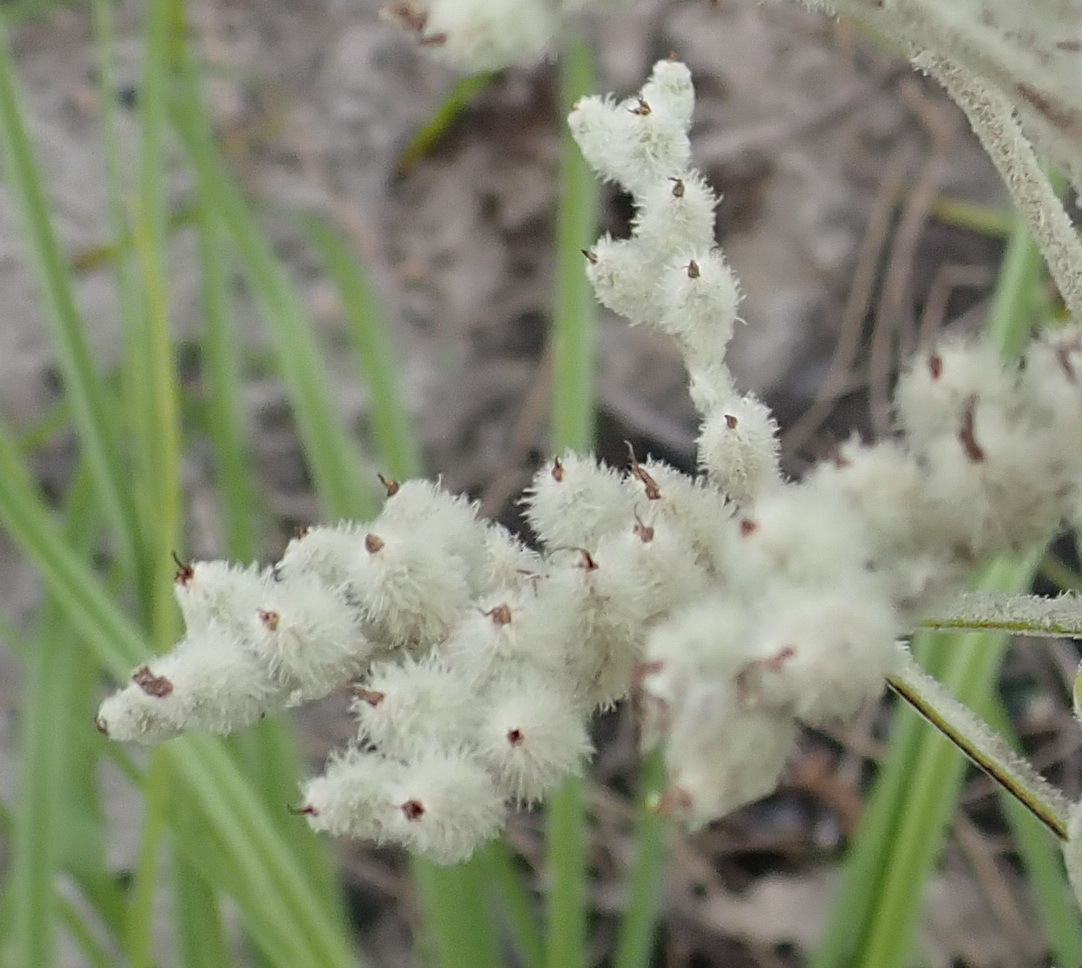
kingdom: Plantae
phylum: Tracheophyta
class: Liliopsida
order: Asparagales
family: Lanariaceae
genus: Lanaria
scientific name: Lanaria lanata
